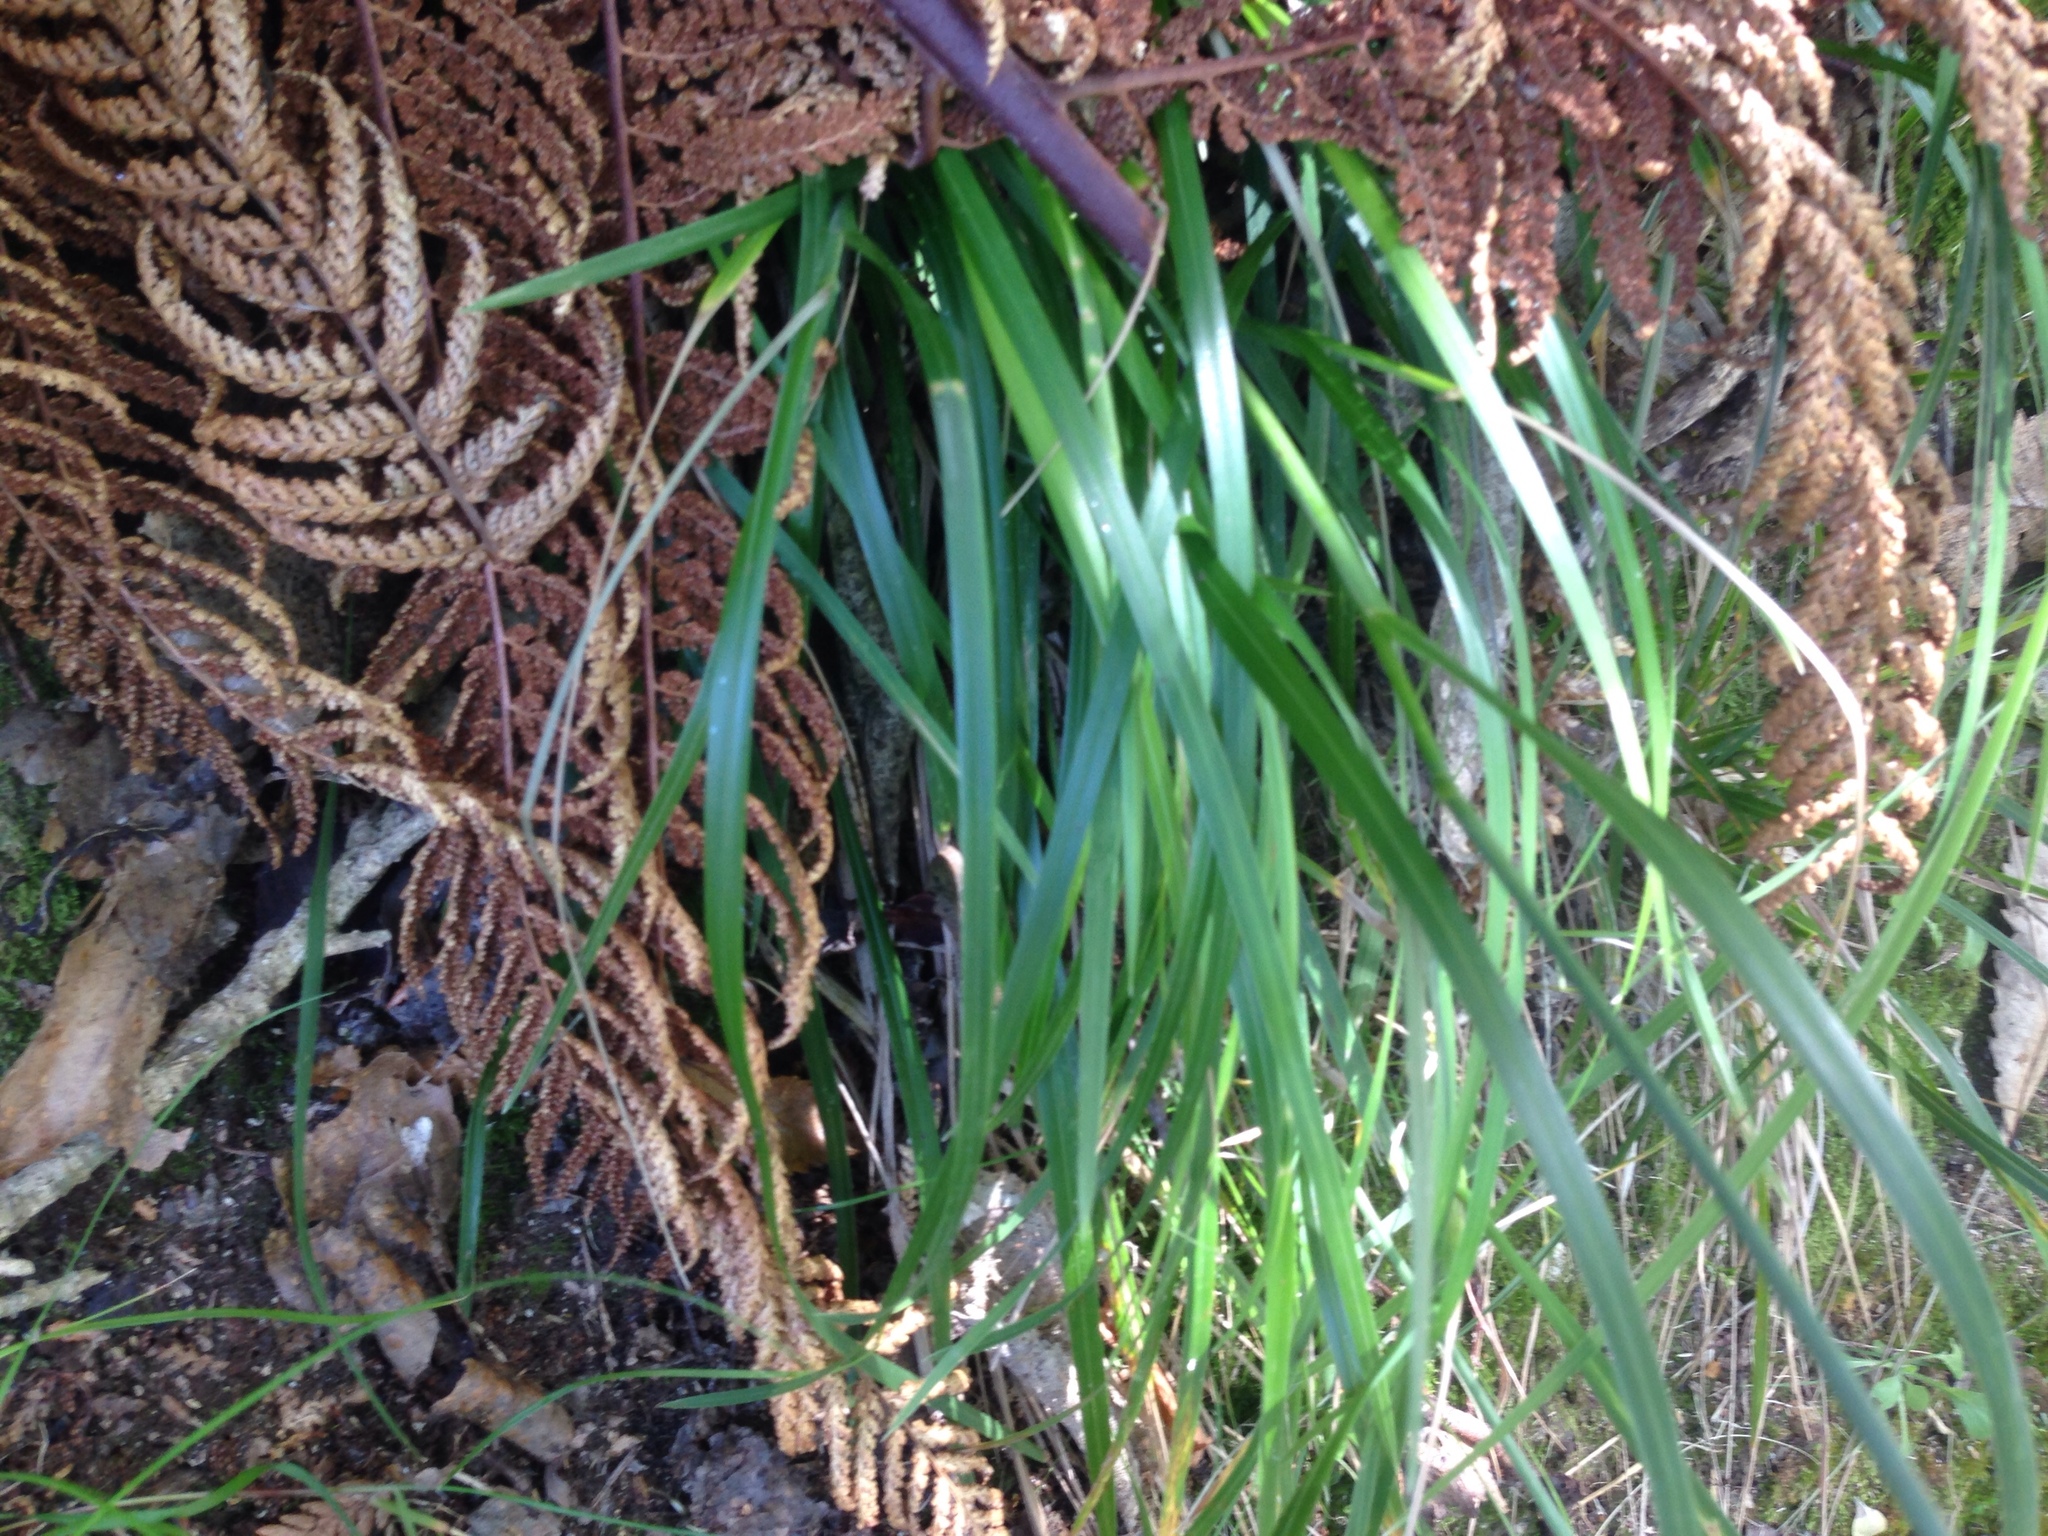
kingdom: Plantae
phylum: Tracheophyta
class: Liliopsida
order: Poales
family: Poaceae
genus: Poa
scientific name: Poa anceps
